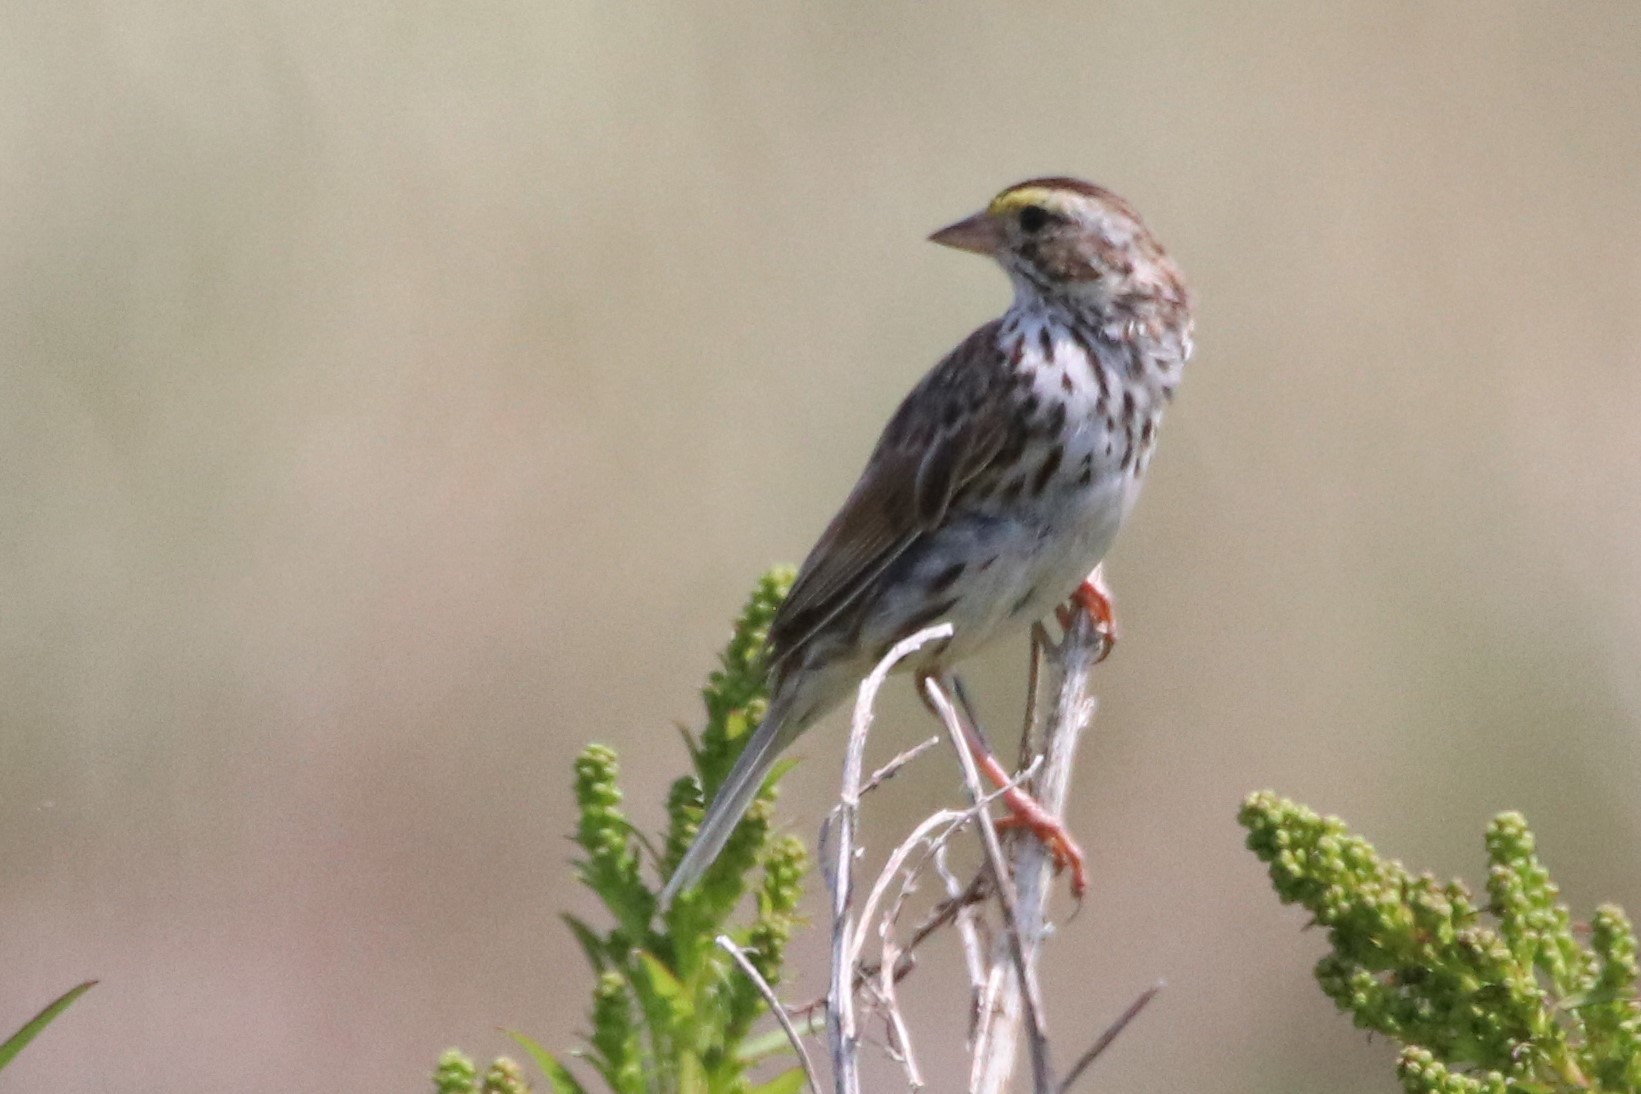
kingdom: Animalia
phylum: Chordata
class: Aves
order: Passeriformes
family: Passerellidae
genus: Passerculus
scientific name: Passerculus sandwichensis
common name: Savannah sparrow
